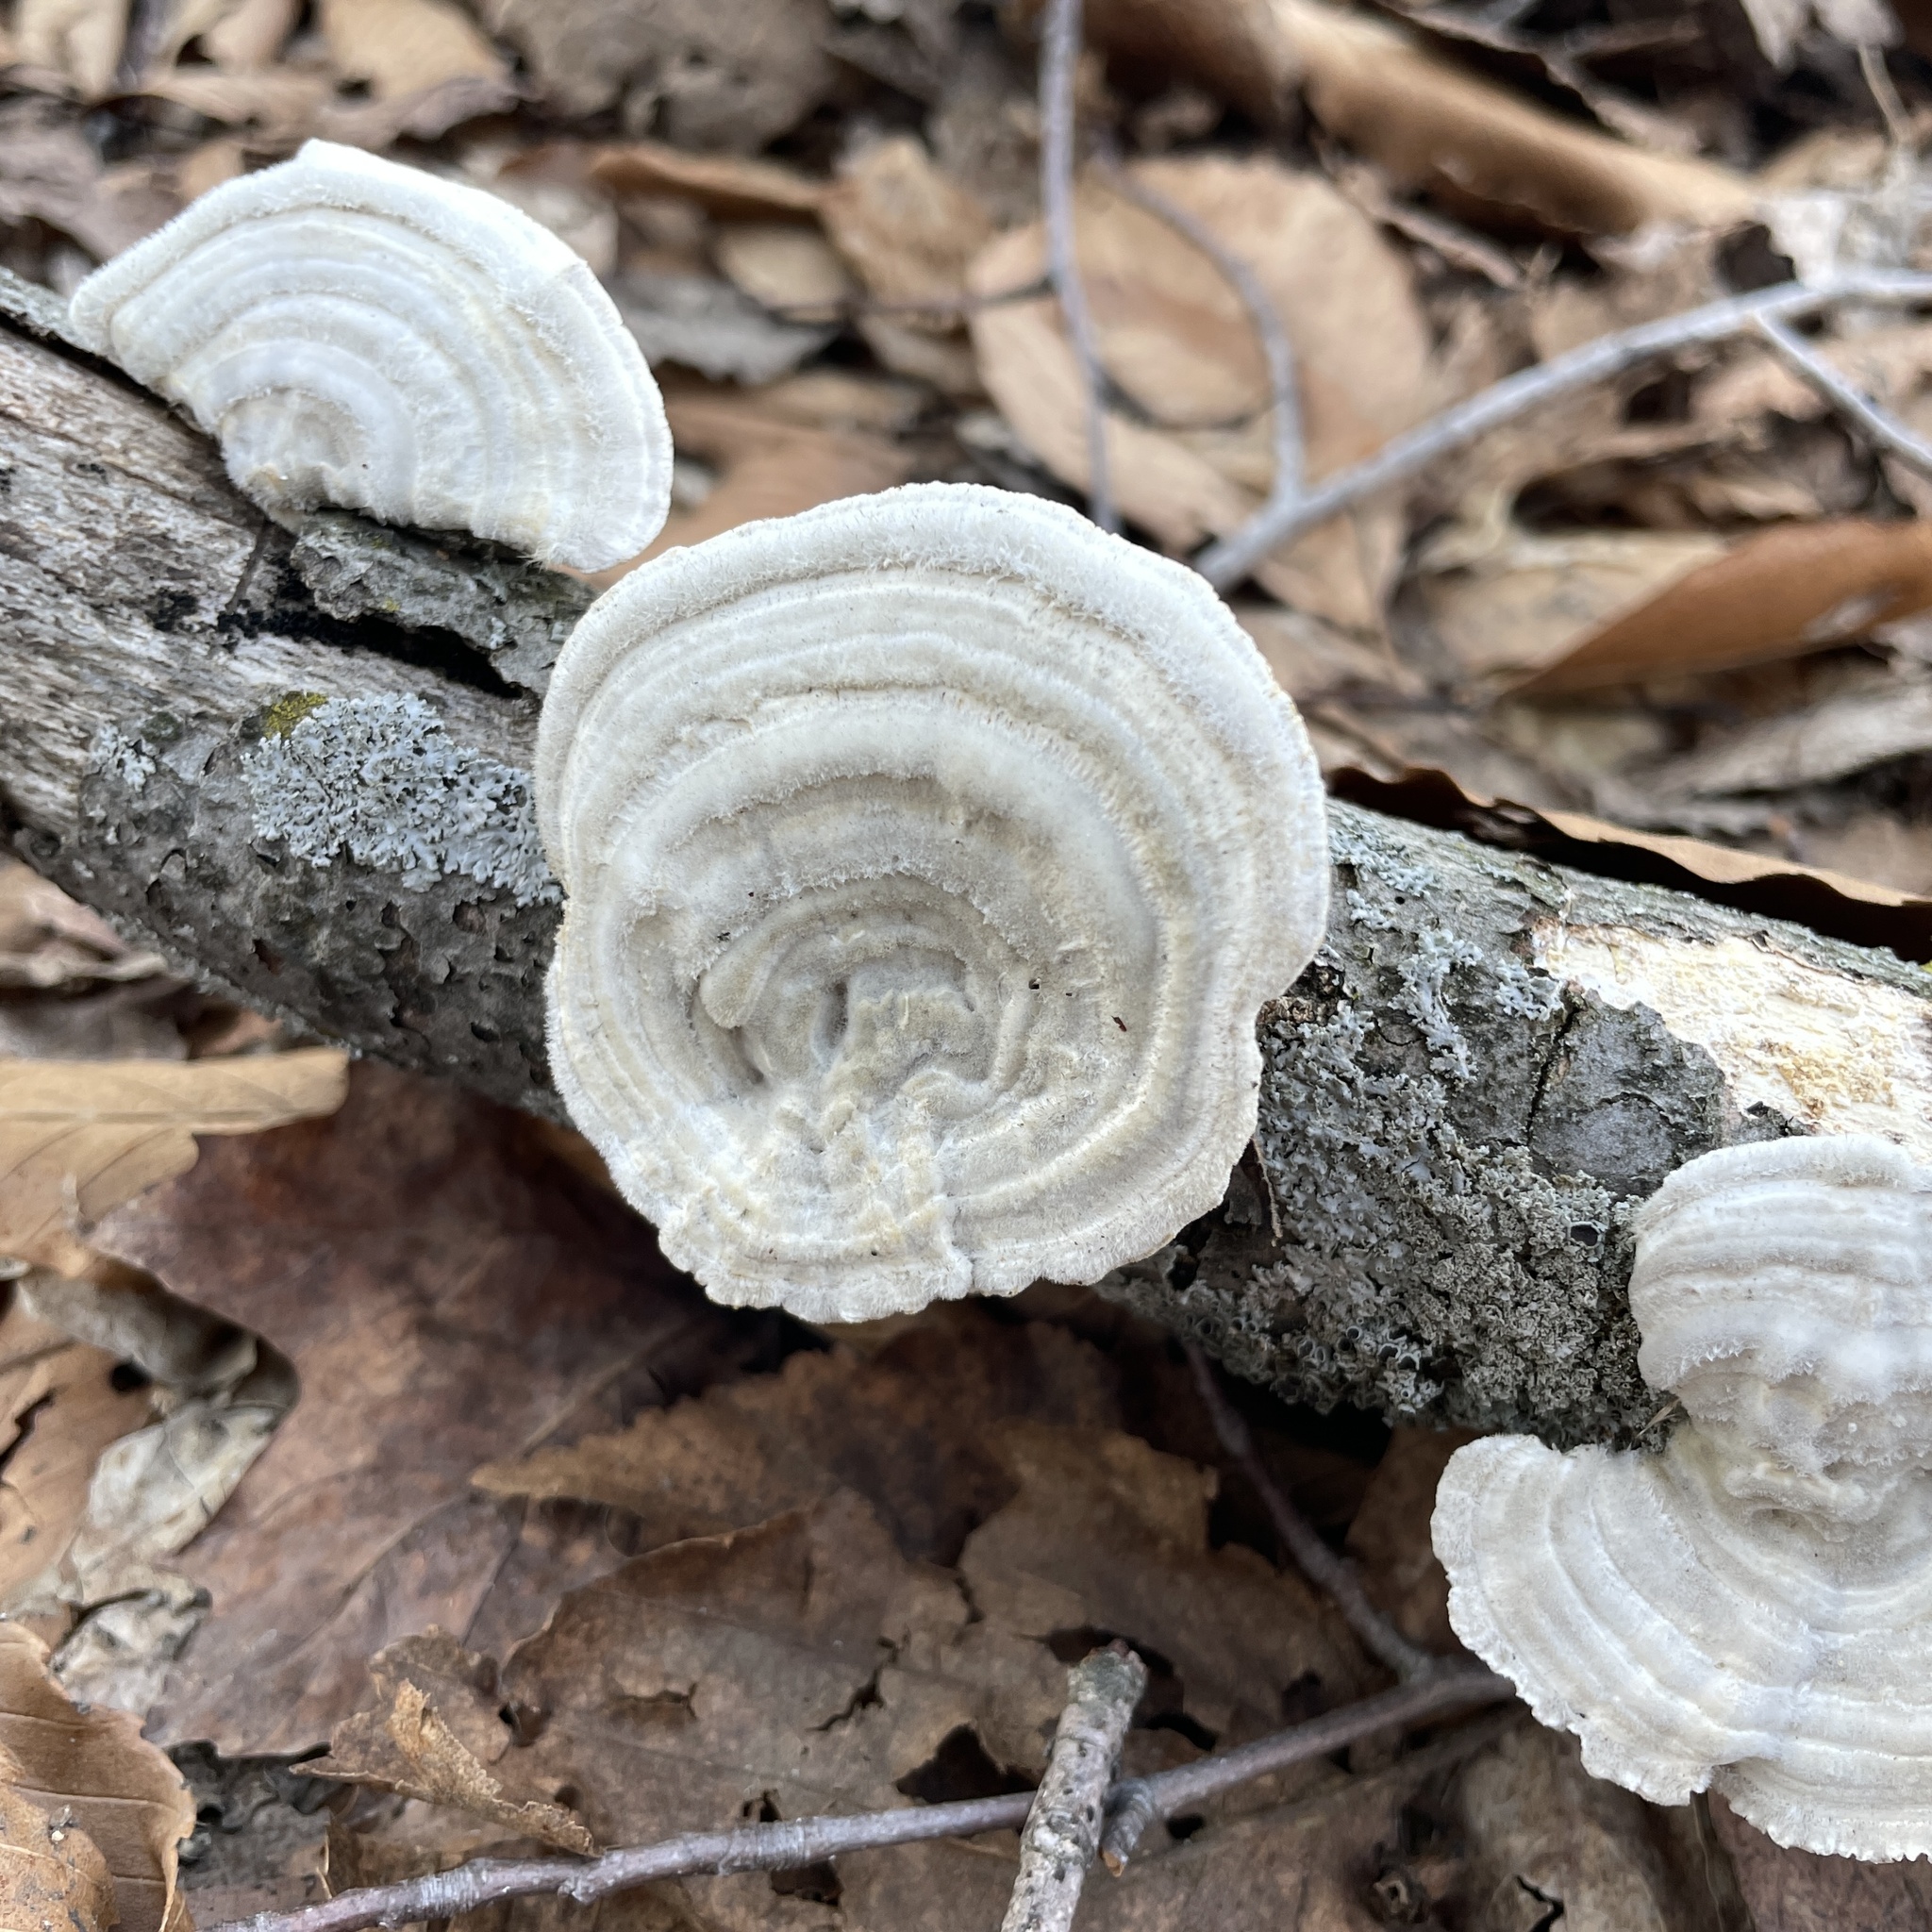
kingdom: Fungi
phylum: Basidiomycota
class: Agaricomycetes
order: Polyporales
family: Polyporaceae
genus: Lenzites
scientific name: Lenzites betulinus
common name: Birch mazegill
